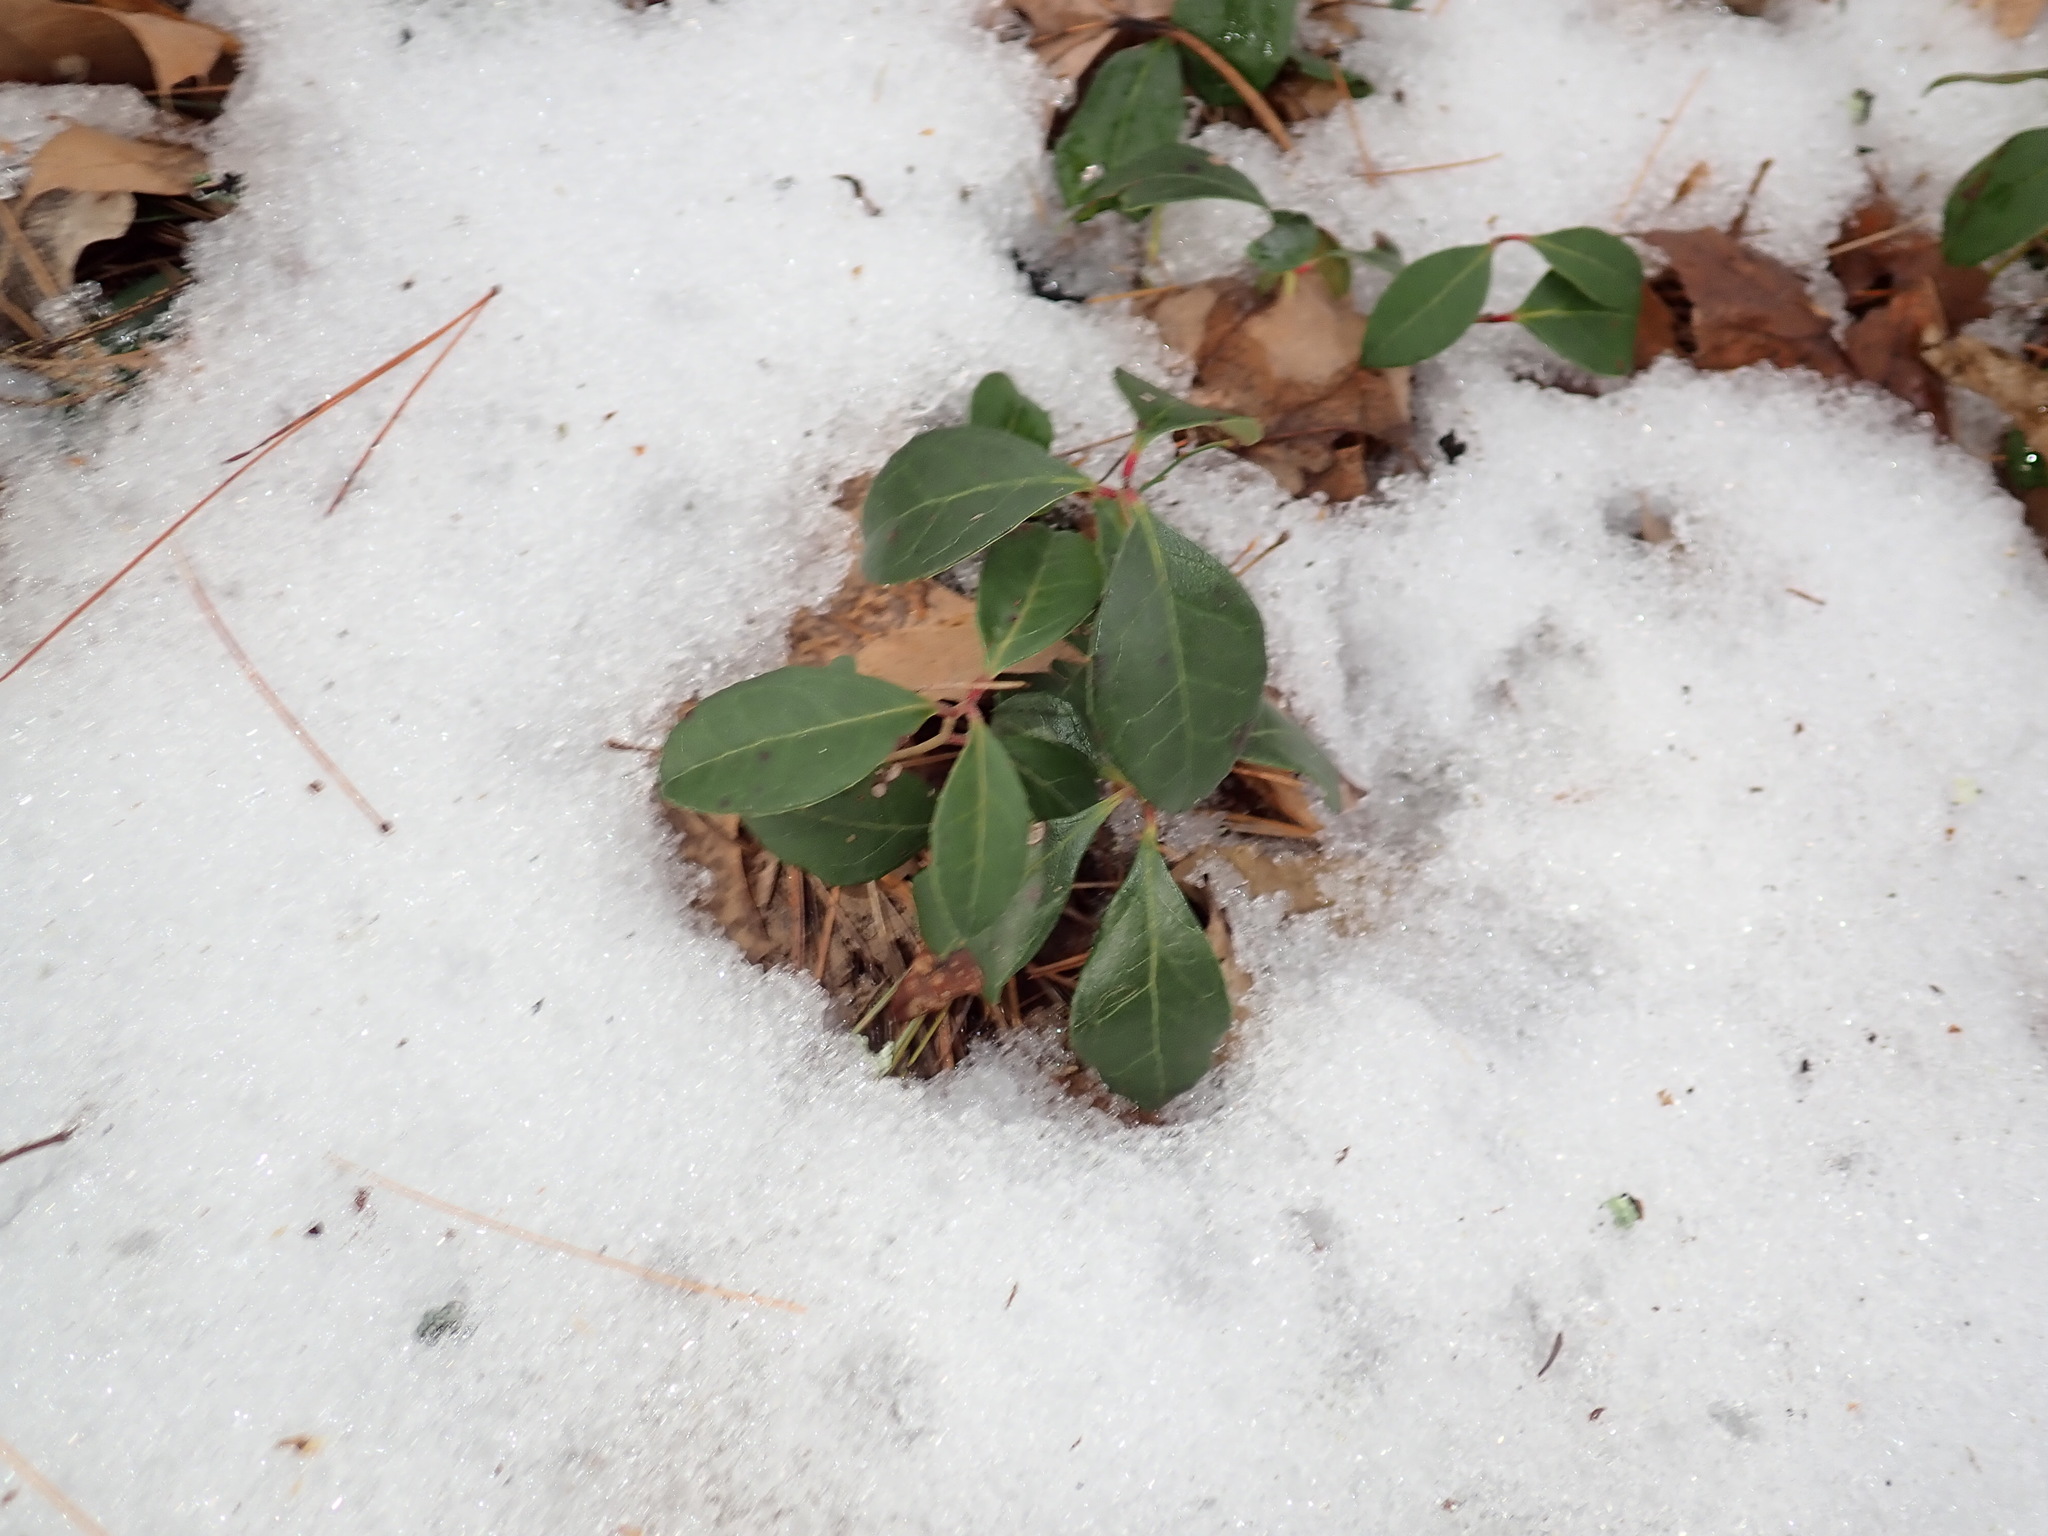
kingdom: Plantae
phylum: Tracheophyta
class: Magnoliopsida
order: Ericales
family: Ericaceae
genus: Gaultheria
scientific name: Gaultheria procumbens
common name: Checkerberry
